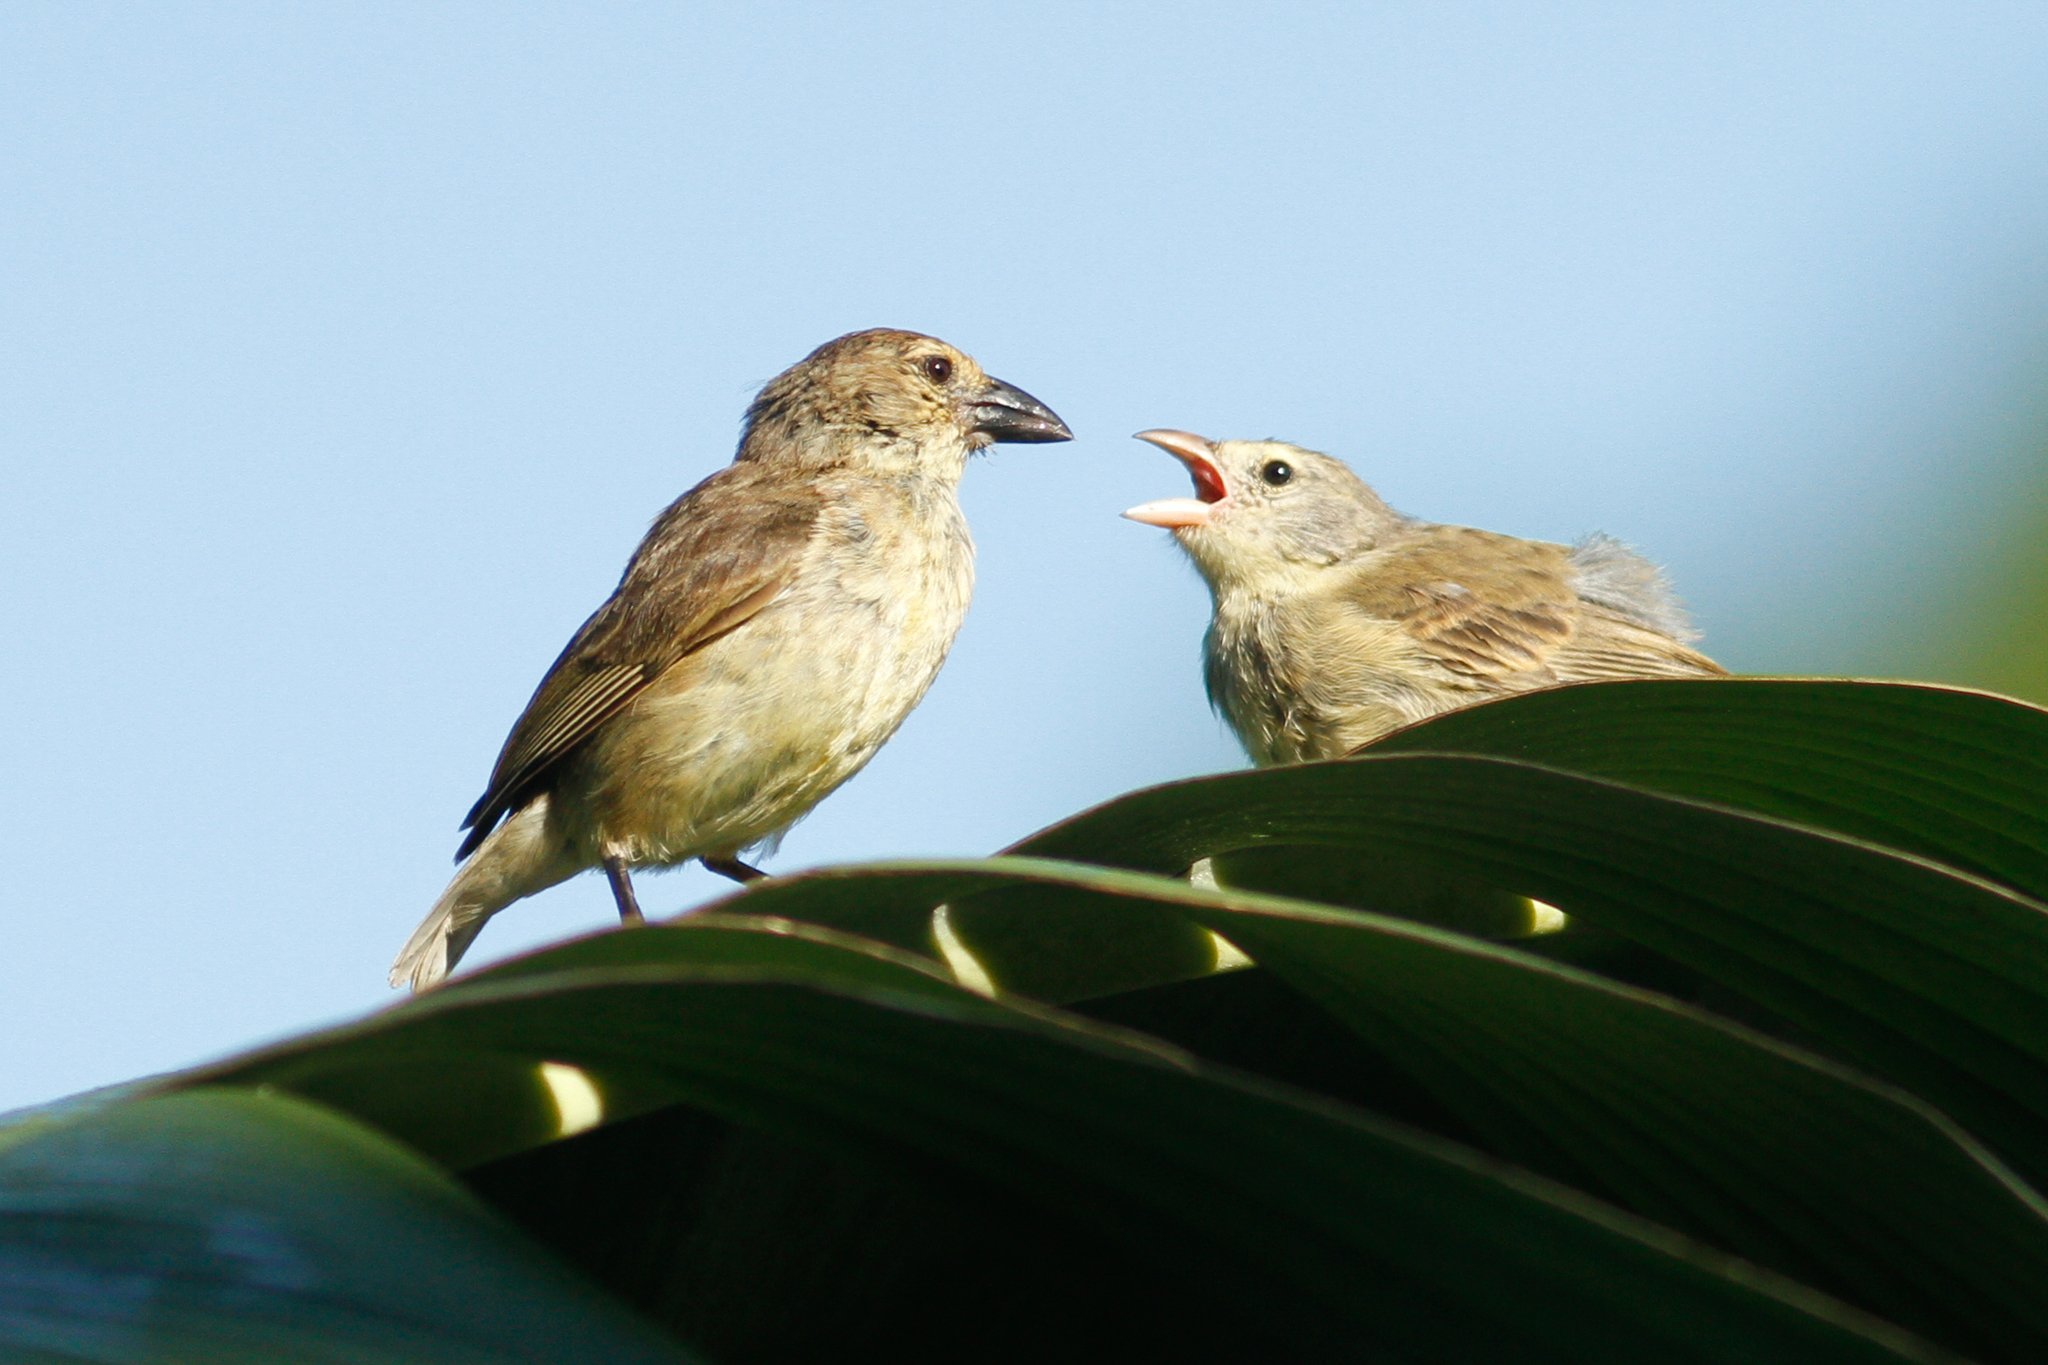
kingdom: Animalia
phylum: Chordata
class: Aves
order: Passeriformes
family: Thraupidae
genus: Camarhynchus
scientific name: Camarhynchus pallidus
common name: Woodpecker finch
